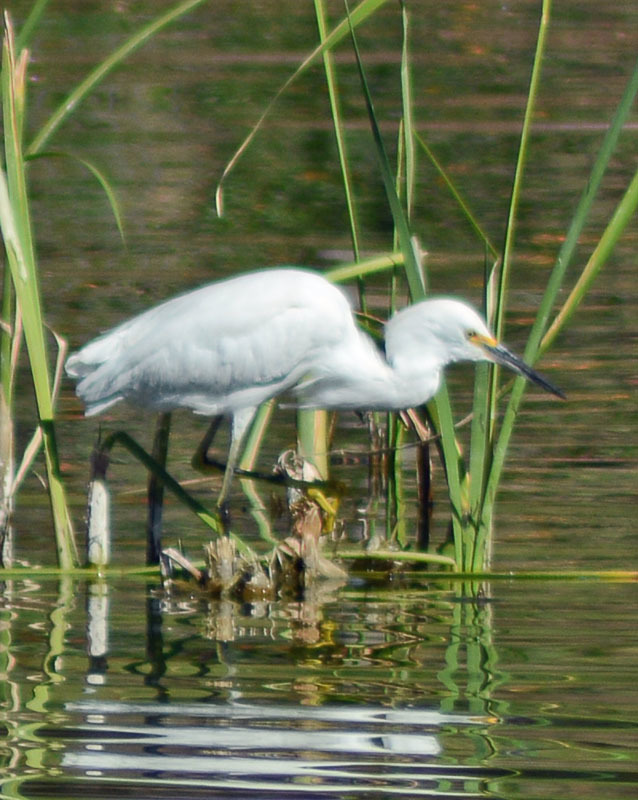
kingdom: Animalia
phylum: Chordata
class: Aves
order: Pelecaniformes
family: Ardeidae
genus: Egretta
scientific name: Egretta thula
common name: Snowy egret
